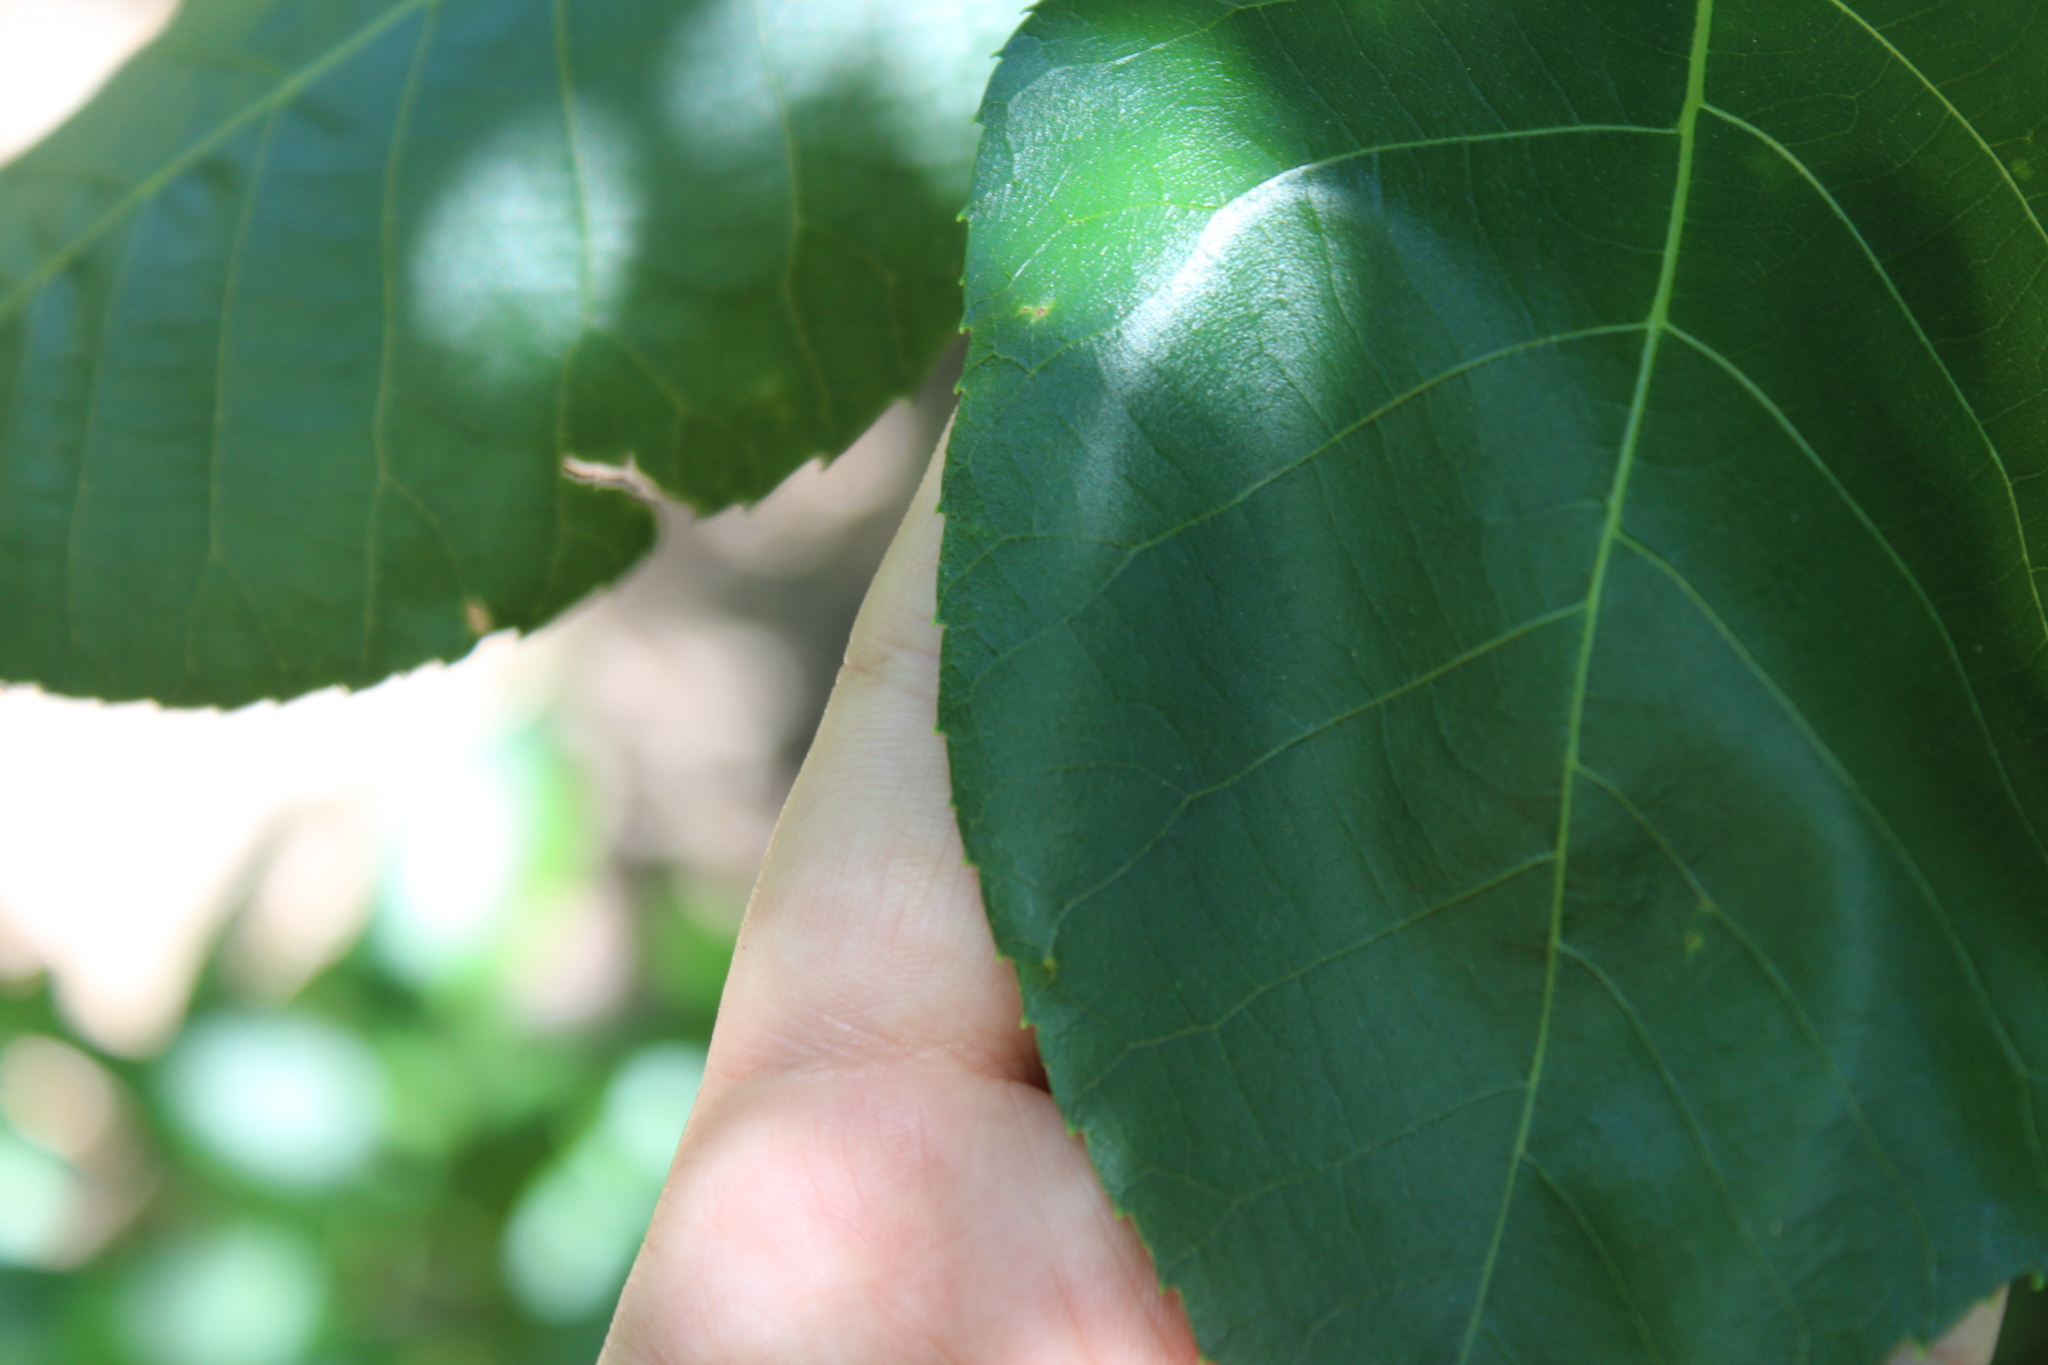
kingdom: Plantae
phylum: Tracheophyta
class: Magnoliopsida
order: Fagales
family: Juglandaceae
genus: Carya
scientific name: Carya texana
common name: Black hickory
